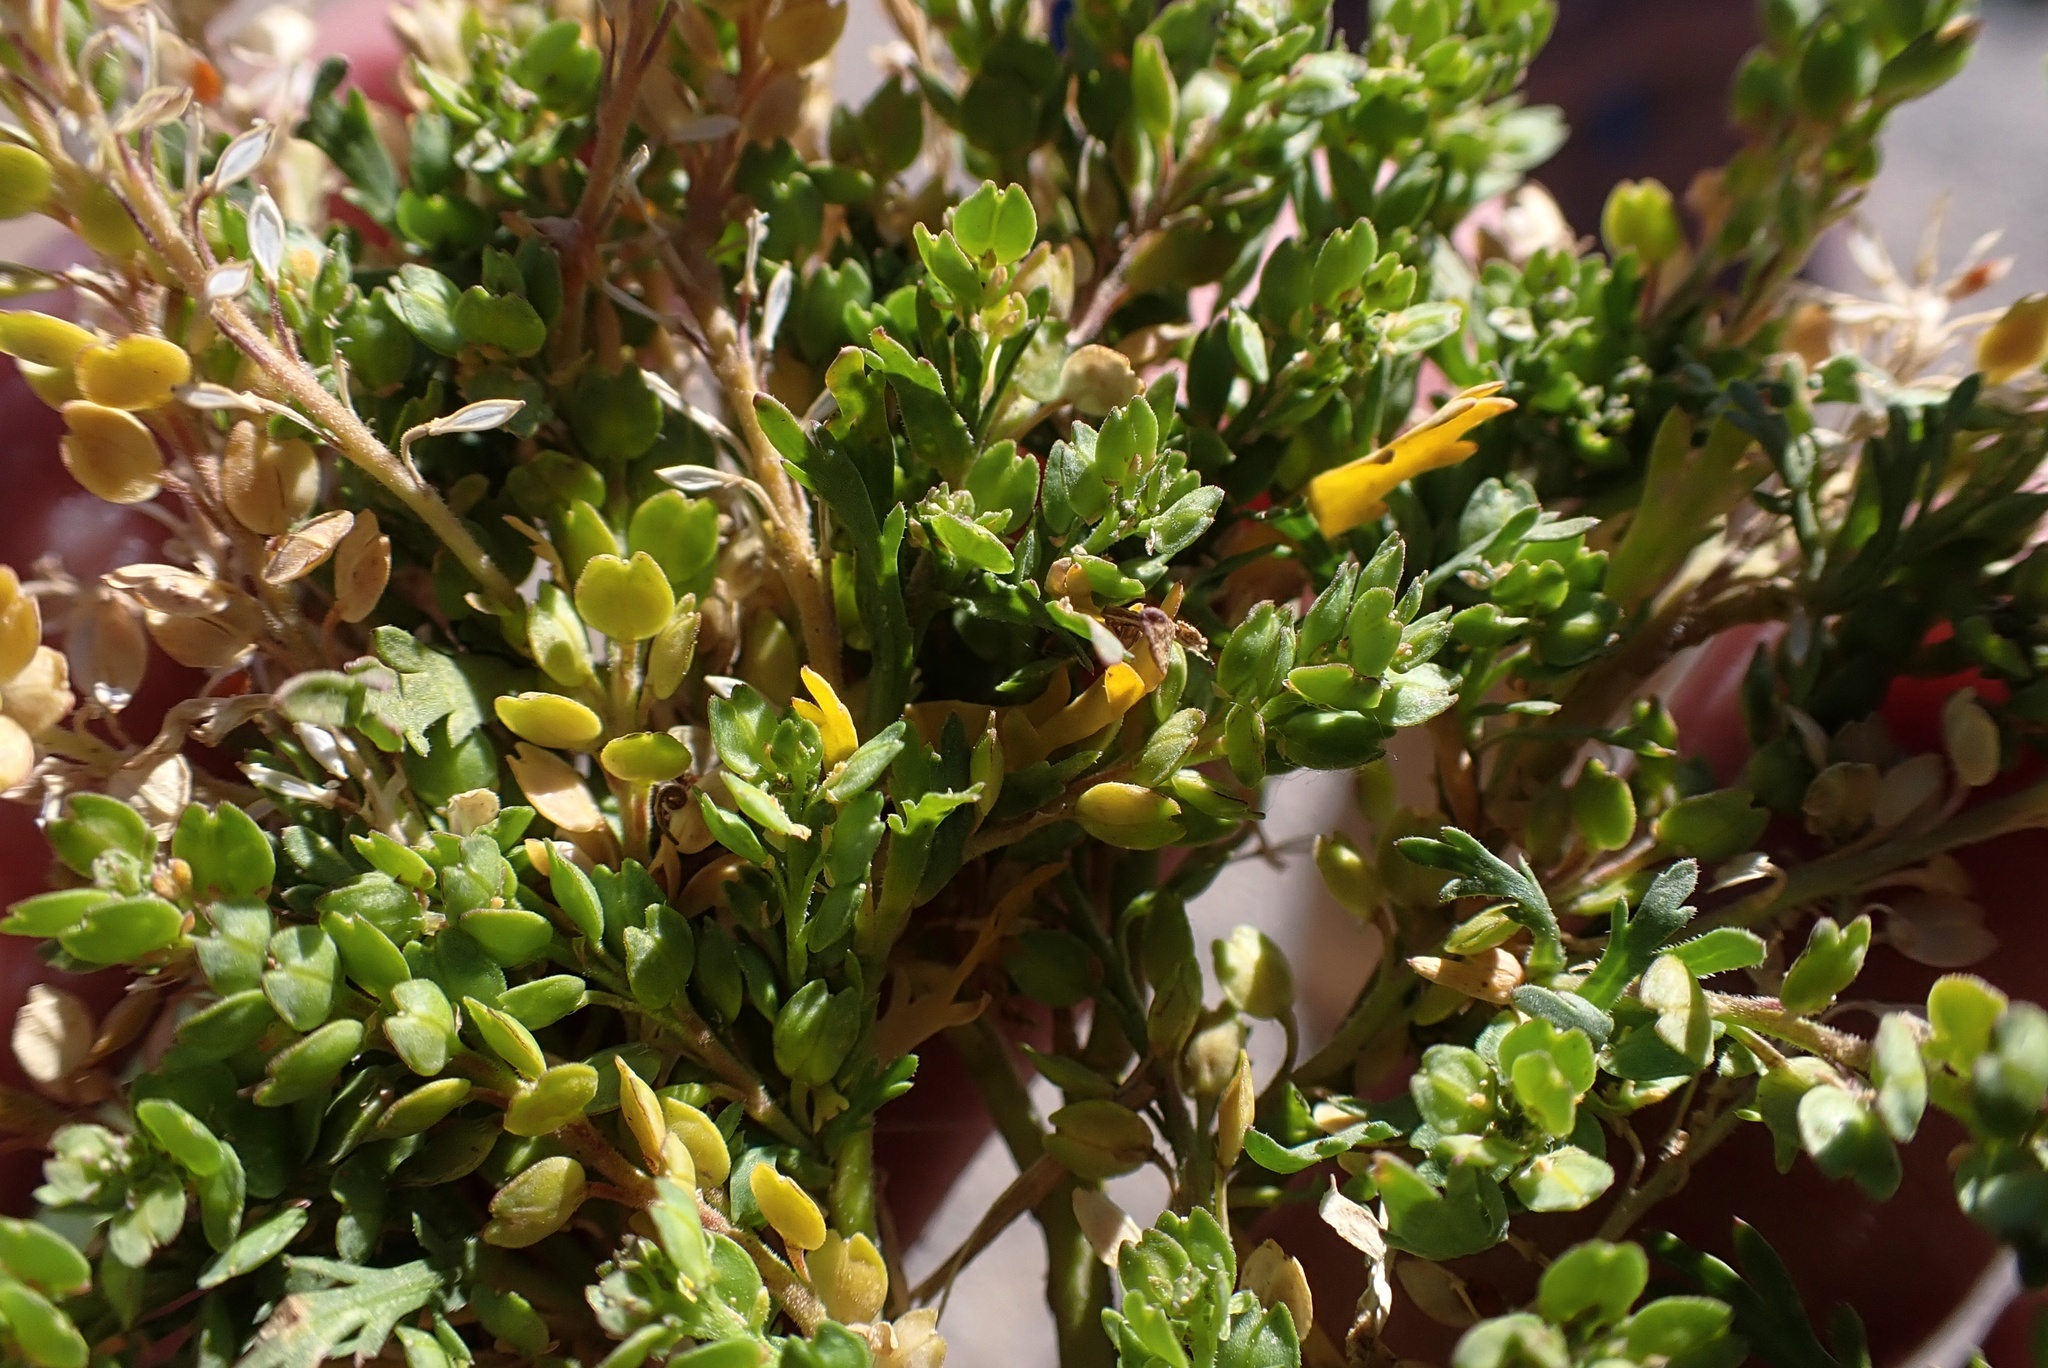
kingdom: Plantae
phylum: Tracheophyta
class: Magnoliopsida
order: Brassicales
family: Brassicaceae
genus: Lepidium
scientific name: Lepidium strictum
